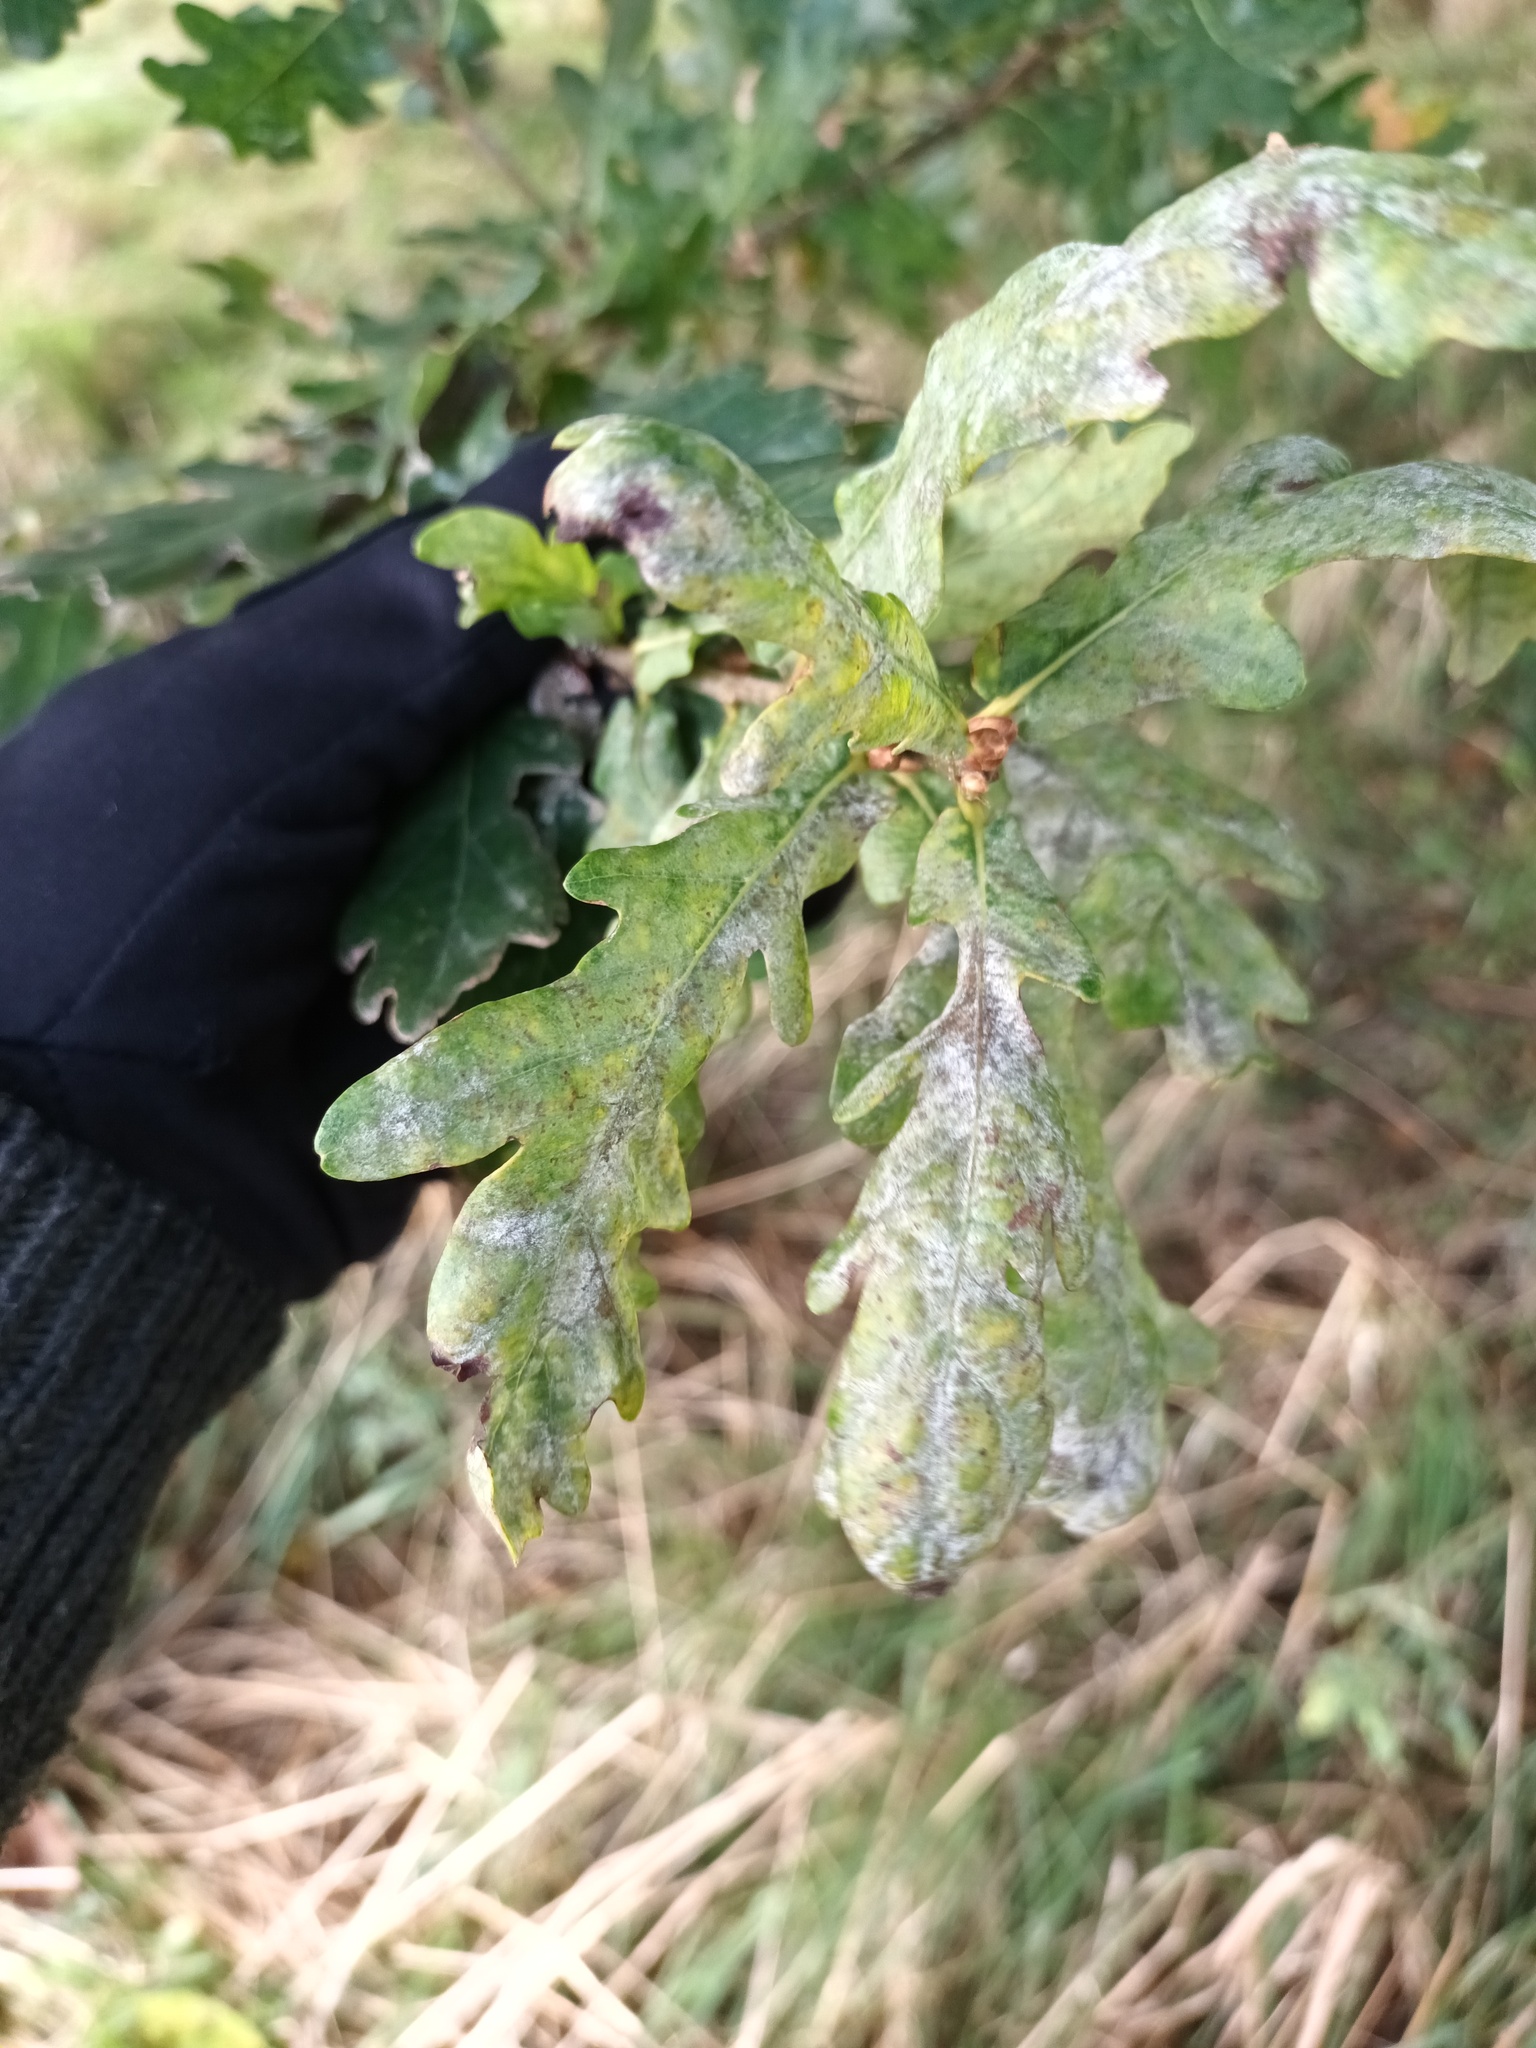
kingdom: Fungi
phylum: Ascomycota
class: Leotiomycetes
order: Helotiales
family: Erysiphaceae
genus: Erysiphe
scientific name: Erysiphe
